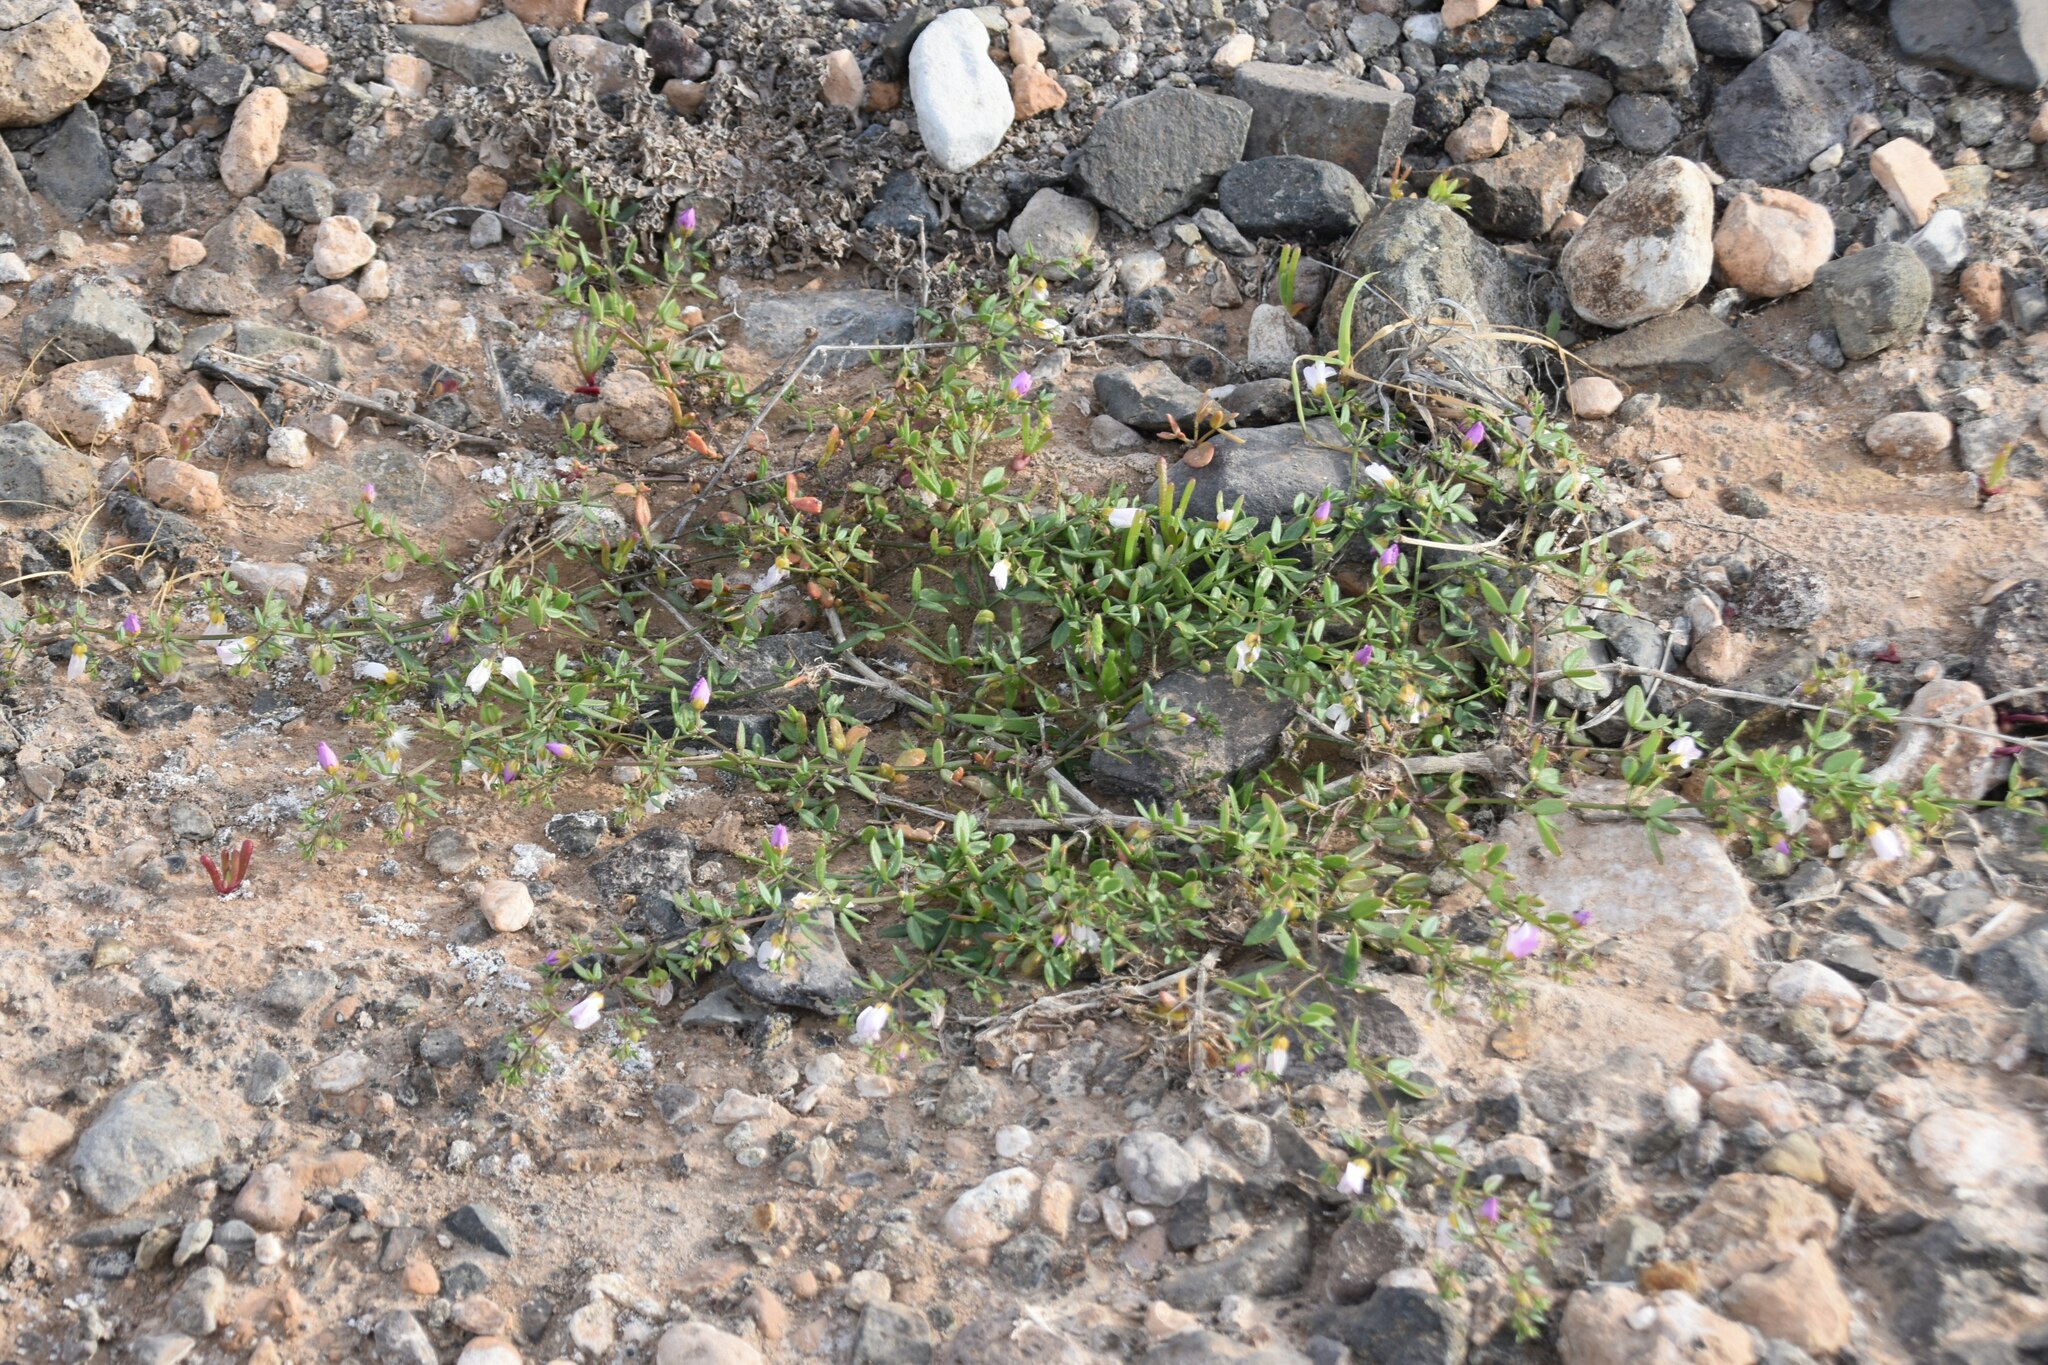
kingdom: Plantae
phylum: Tracheophyta
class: Magnoliopsida
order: Zygophyllales
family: Zygophyllaceae
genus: Fagonia
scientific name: Fagonia cretica
